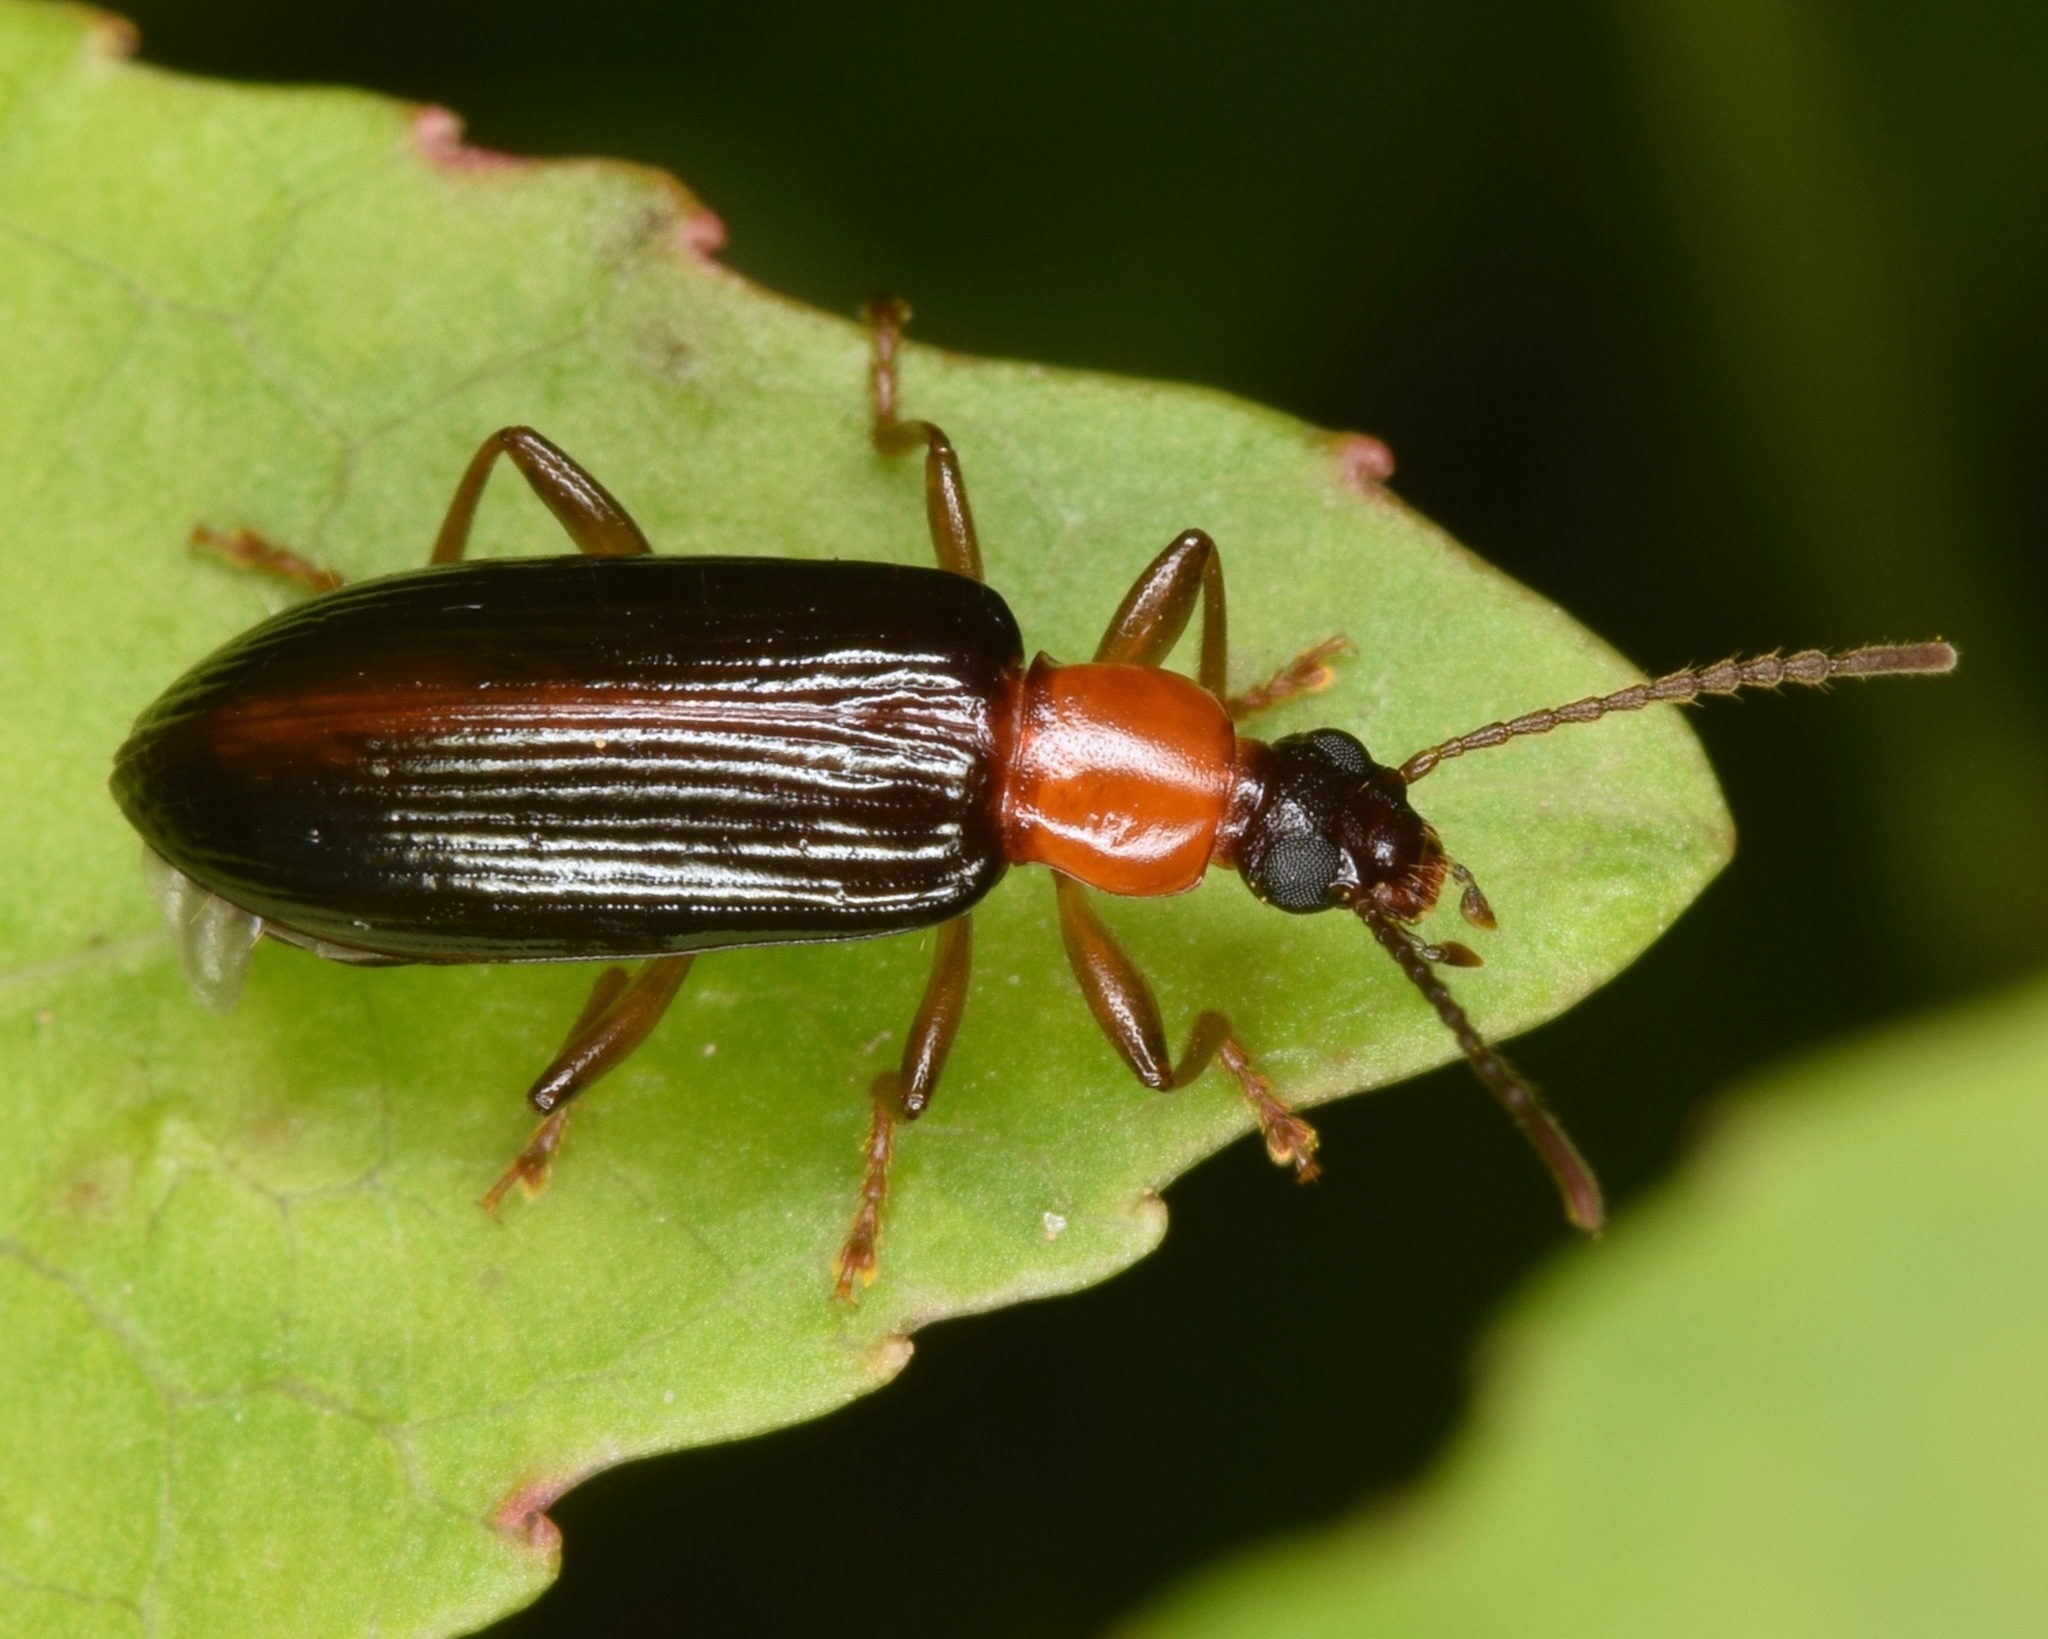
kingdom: Animalia
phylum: Arthropoda
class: Insecta
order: Coleoptera
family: Tenebrionidae
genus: Statira
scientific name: Statira
